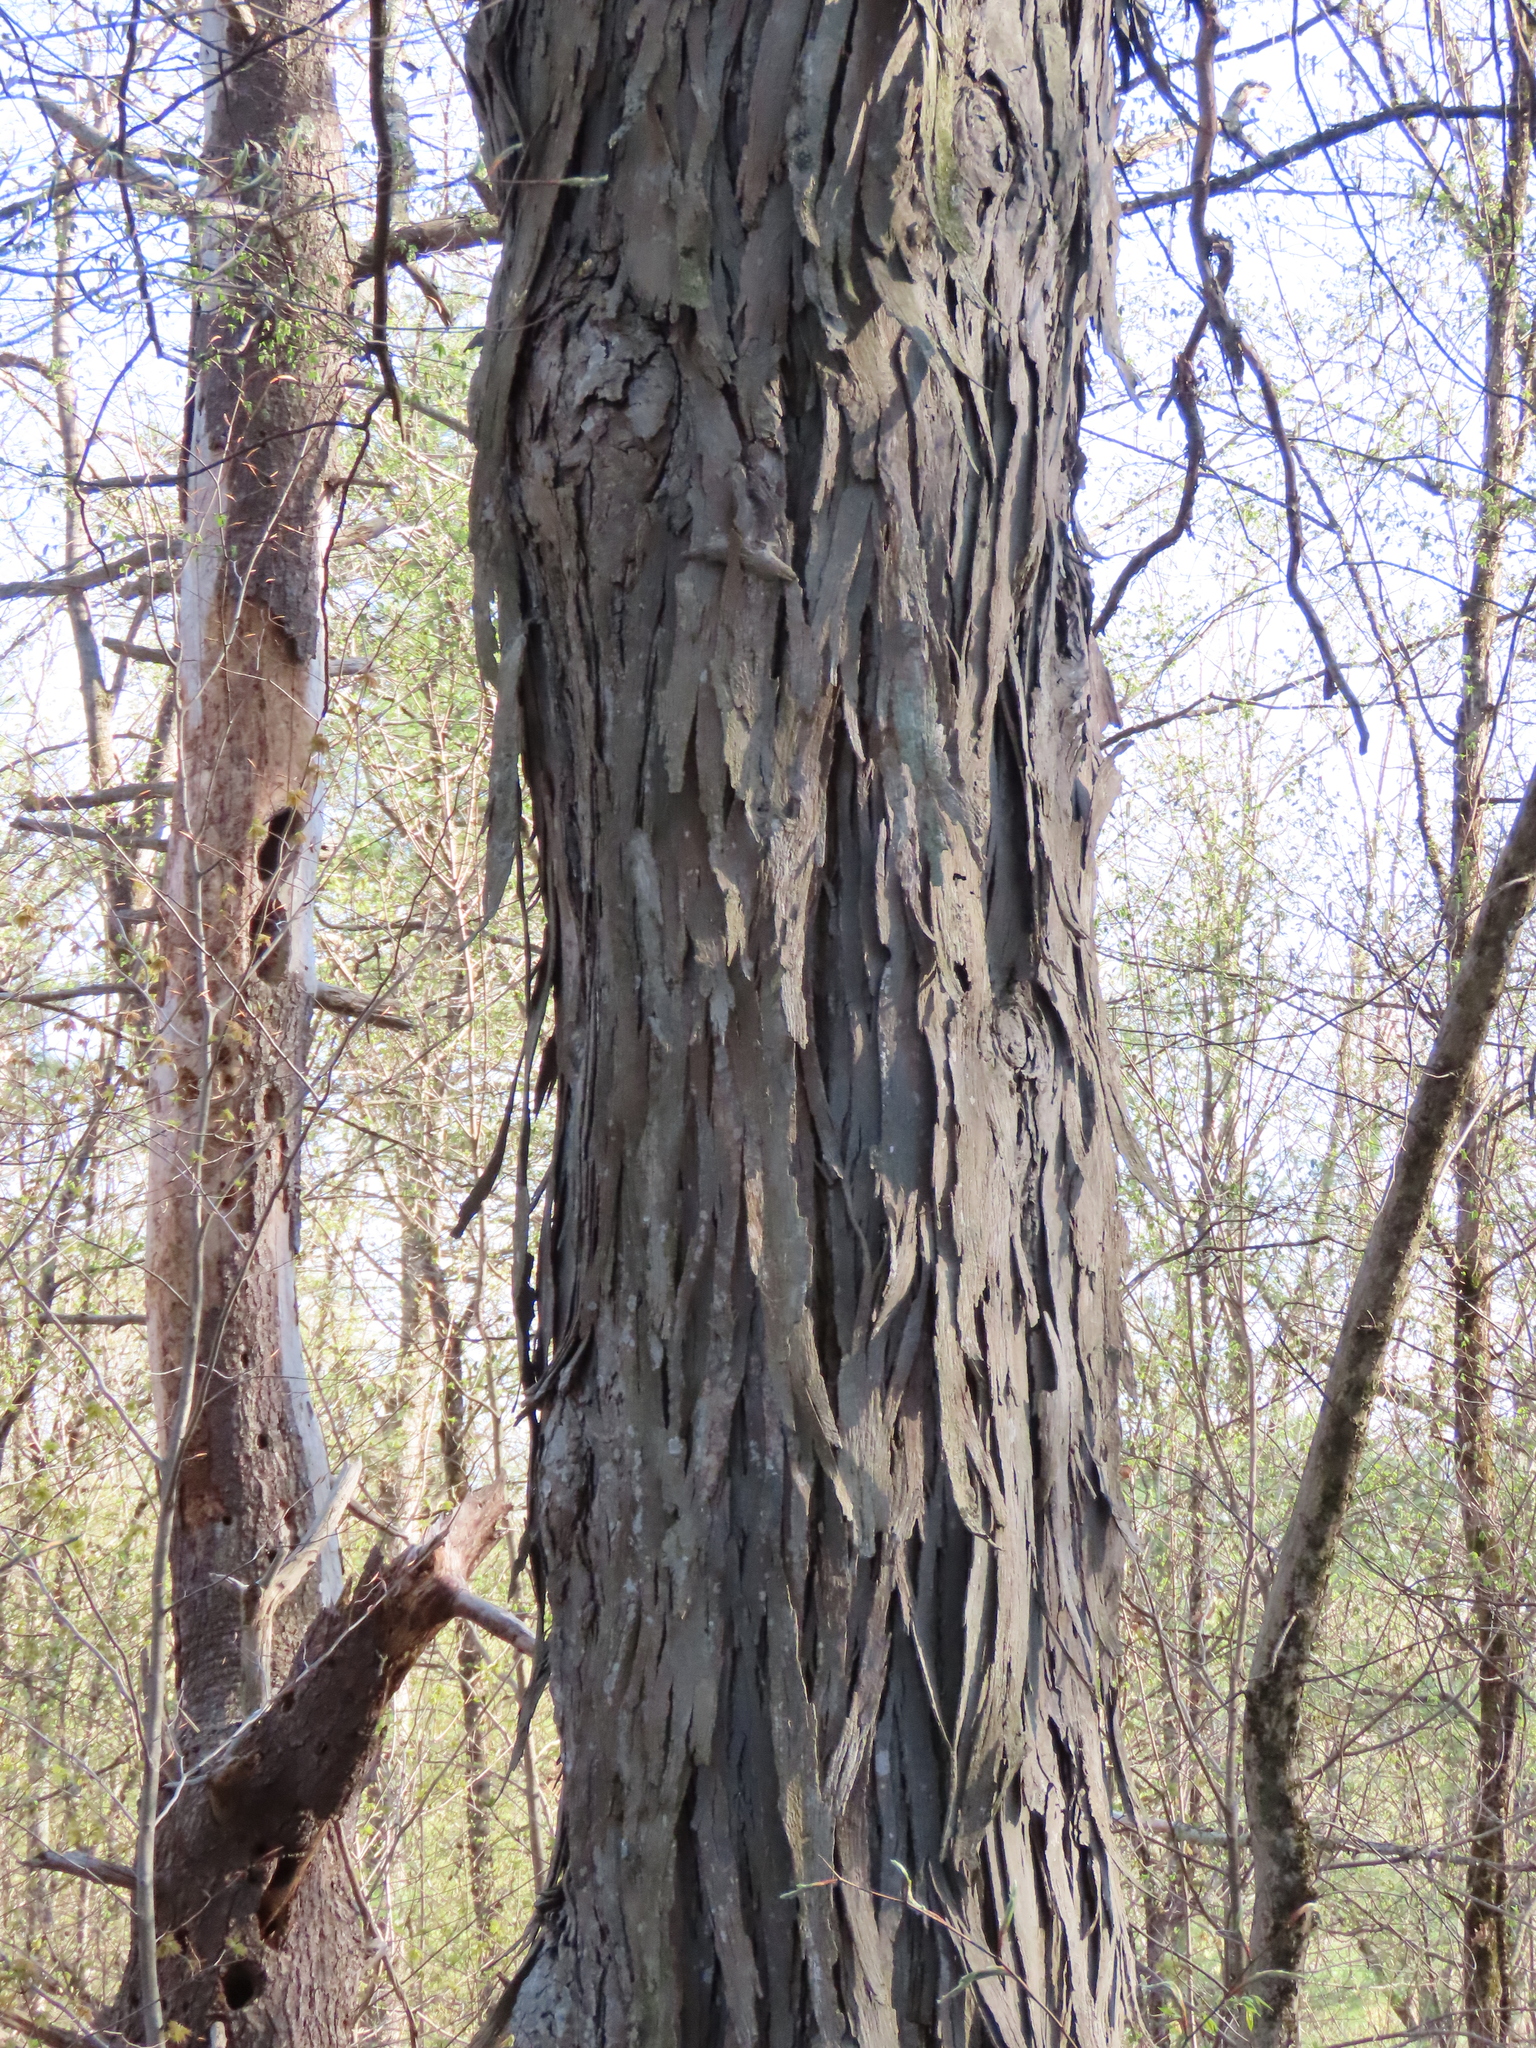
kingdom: Plantae
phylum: Tracheophyta
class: Magnoliopsida
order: Fagales
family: Juglandaceae
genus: Carya
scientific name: Carya ovata
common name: Shagbark hickory
